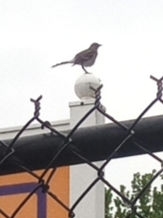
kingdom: Animalia
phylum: Chordata
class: Aves
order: Passeriformes
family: Mimidae
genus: Mimus
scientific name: Mimus polyglottos
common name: Northern mockingbird
